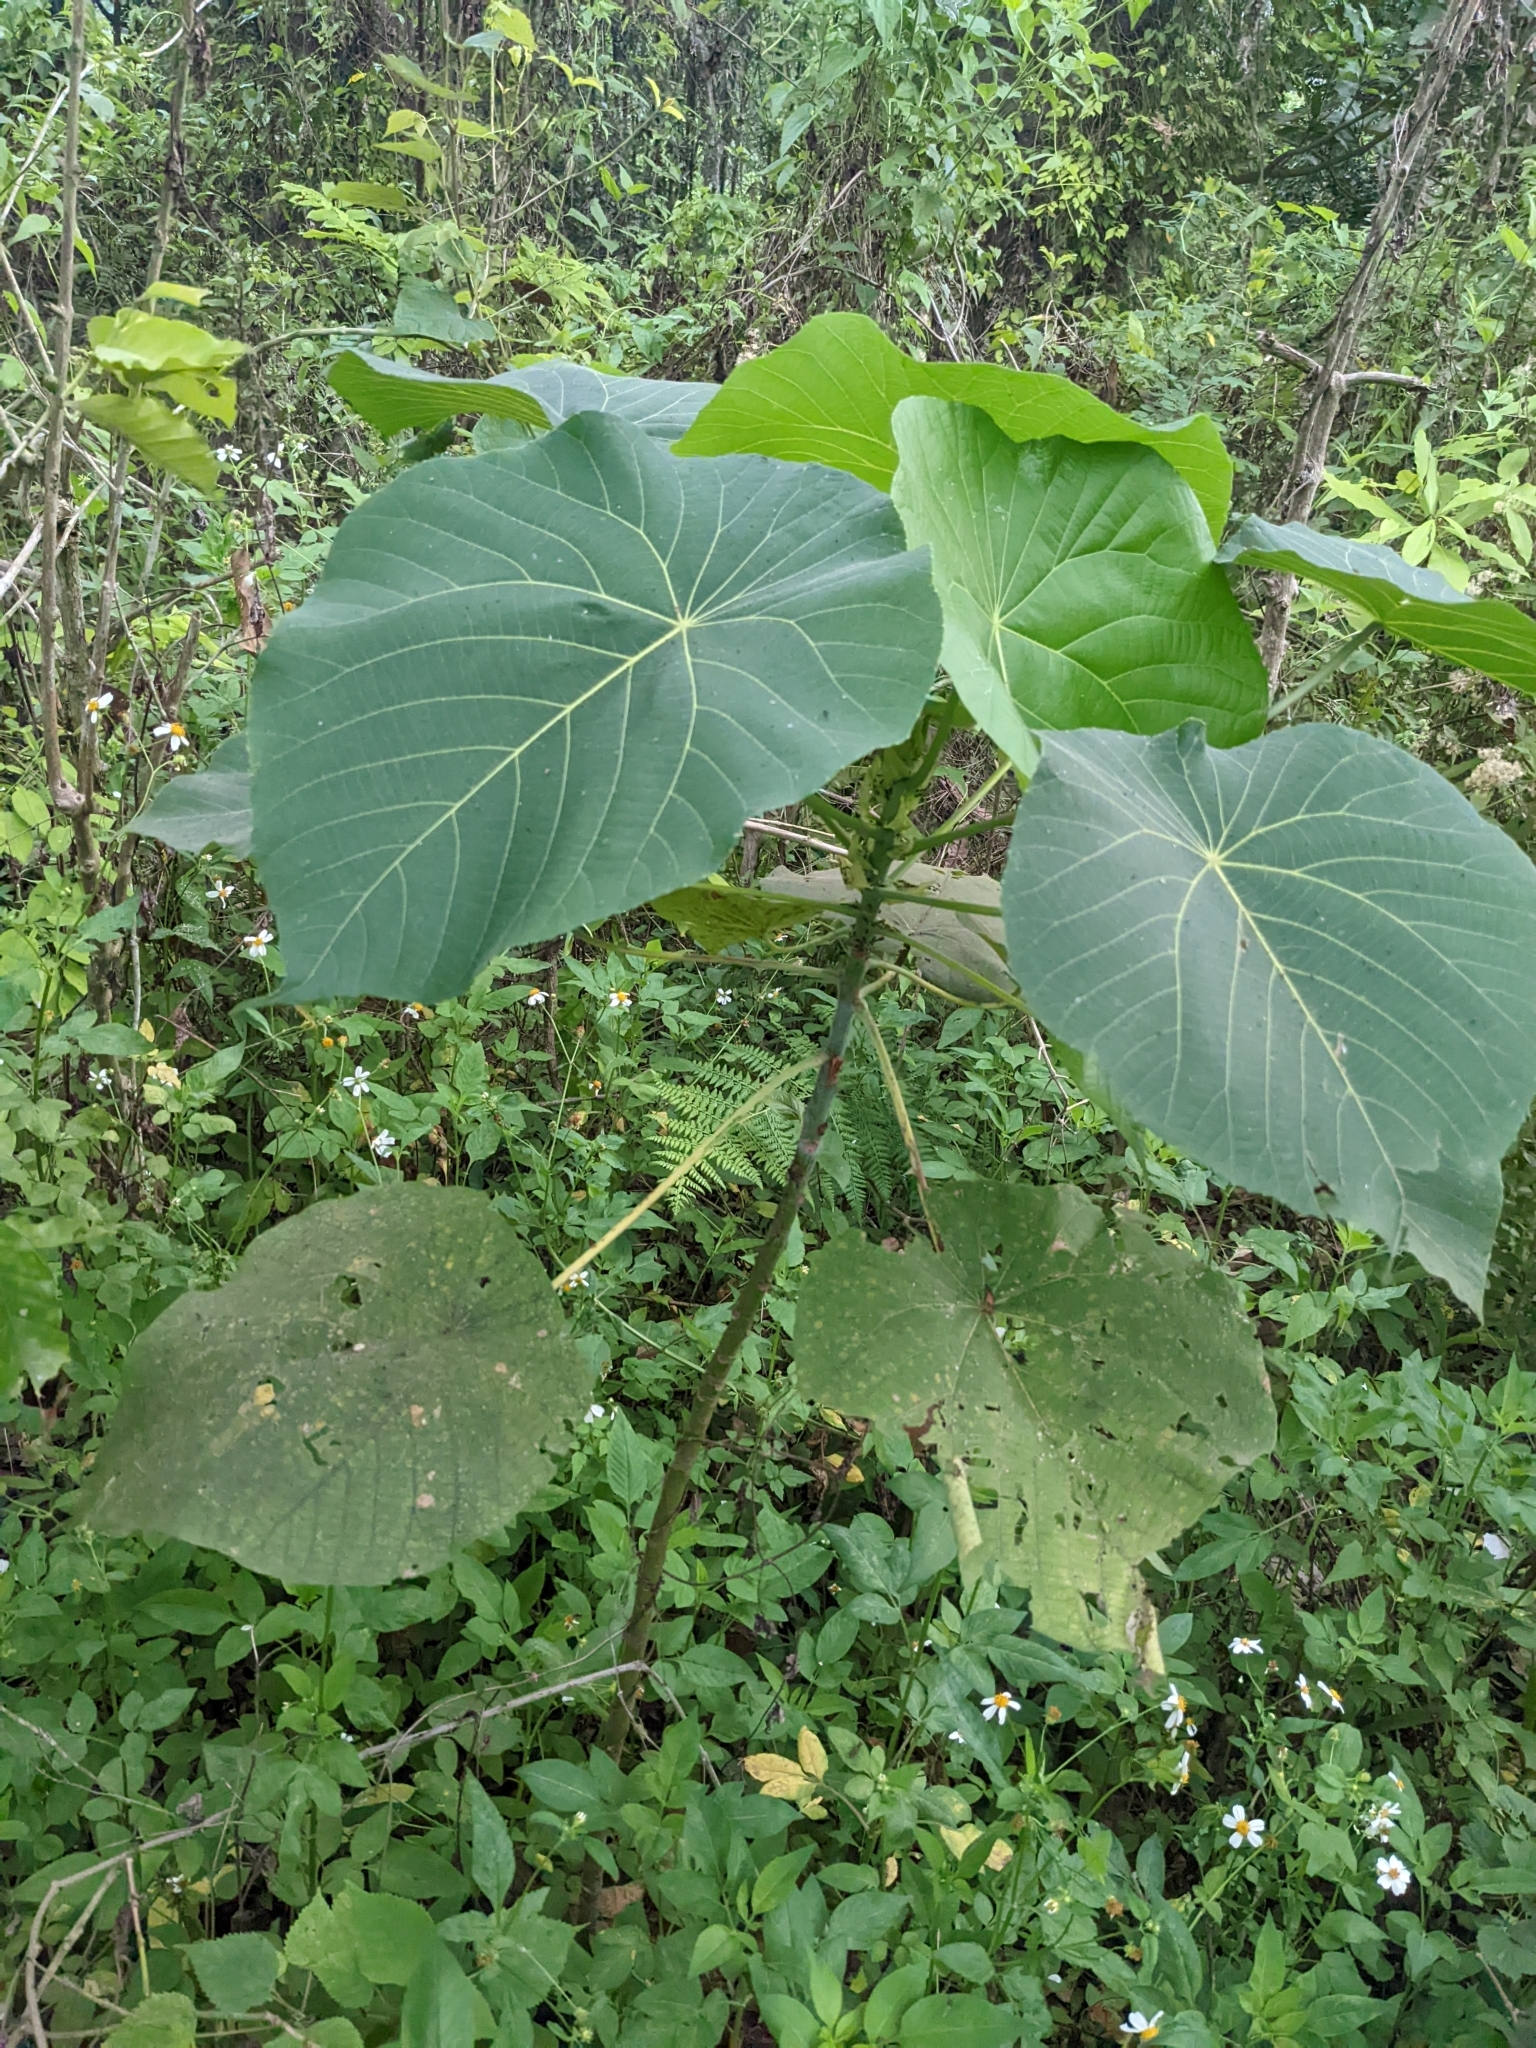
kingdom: Plantae
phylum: Tracheophyta
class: Magnoliopsida
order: Malpighiales
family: Euphorbiaceae
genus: Macaranga
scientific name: Macaranga tanarius
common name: Parasol leaf tree
